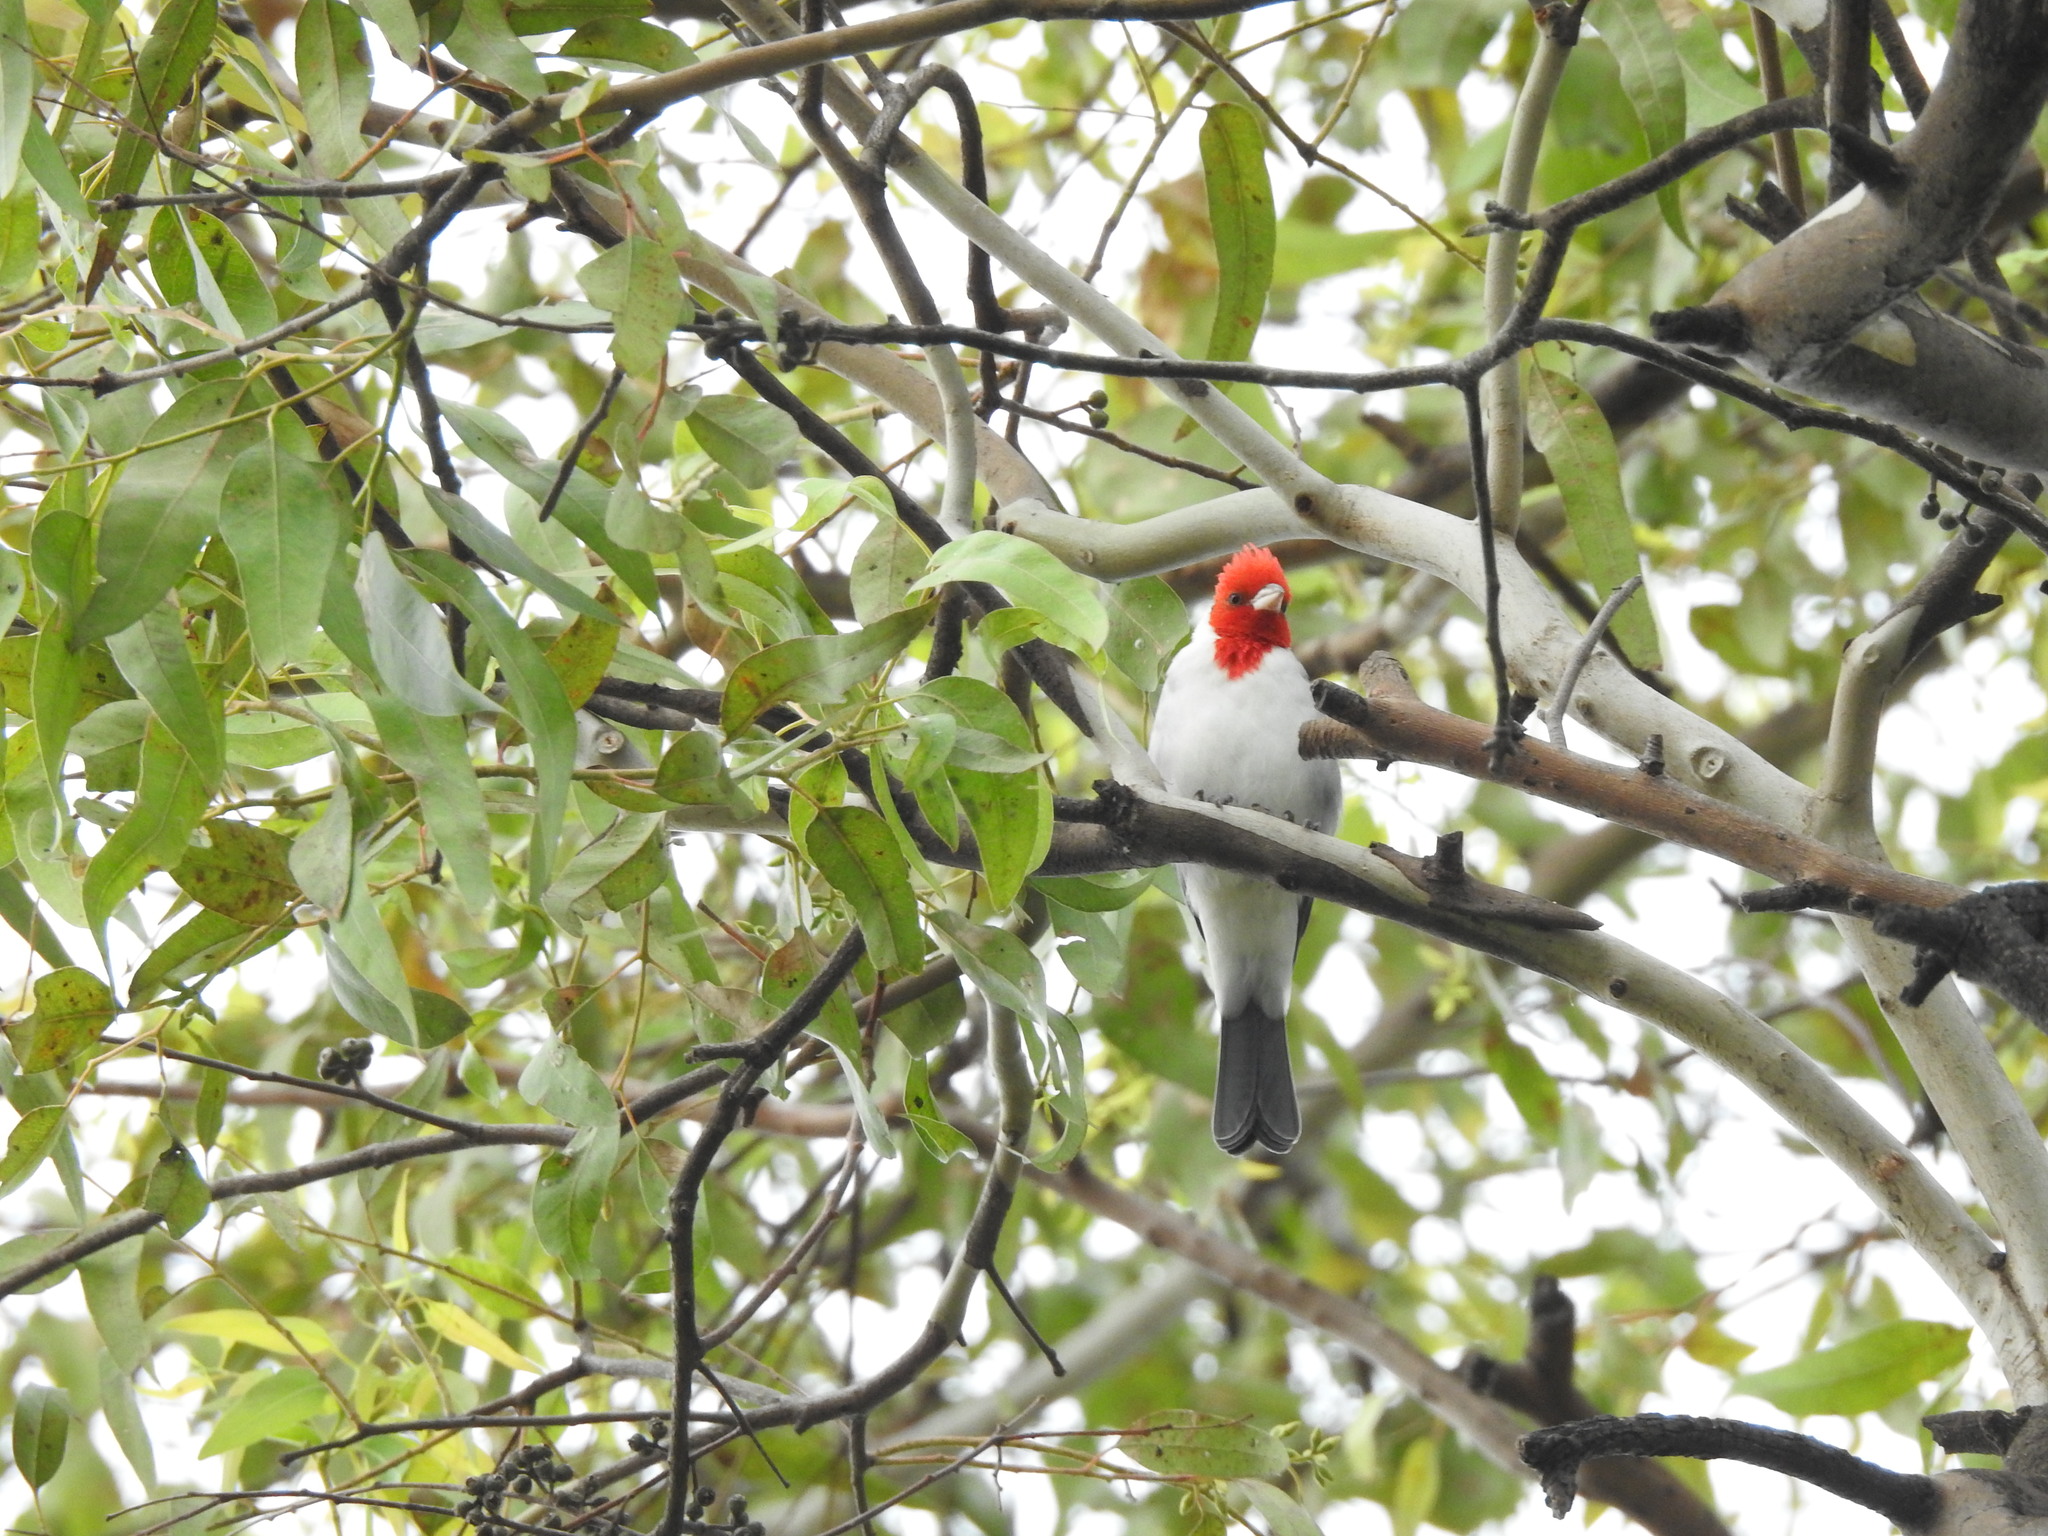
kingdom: Animalia
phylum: Chordata
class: Aves
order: Passeriformes
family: Thraupidae
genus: Paroaria
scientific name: Paroaria coronata
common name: Red-crested cardinal
